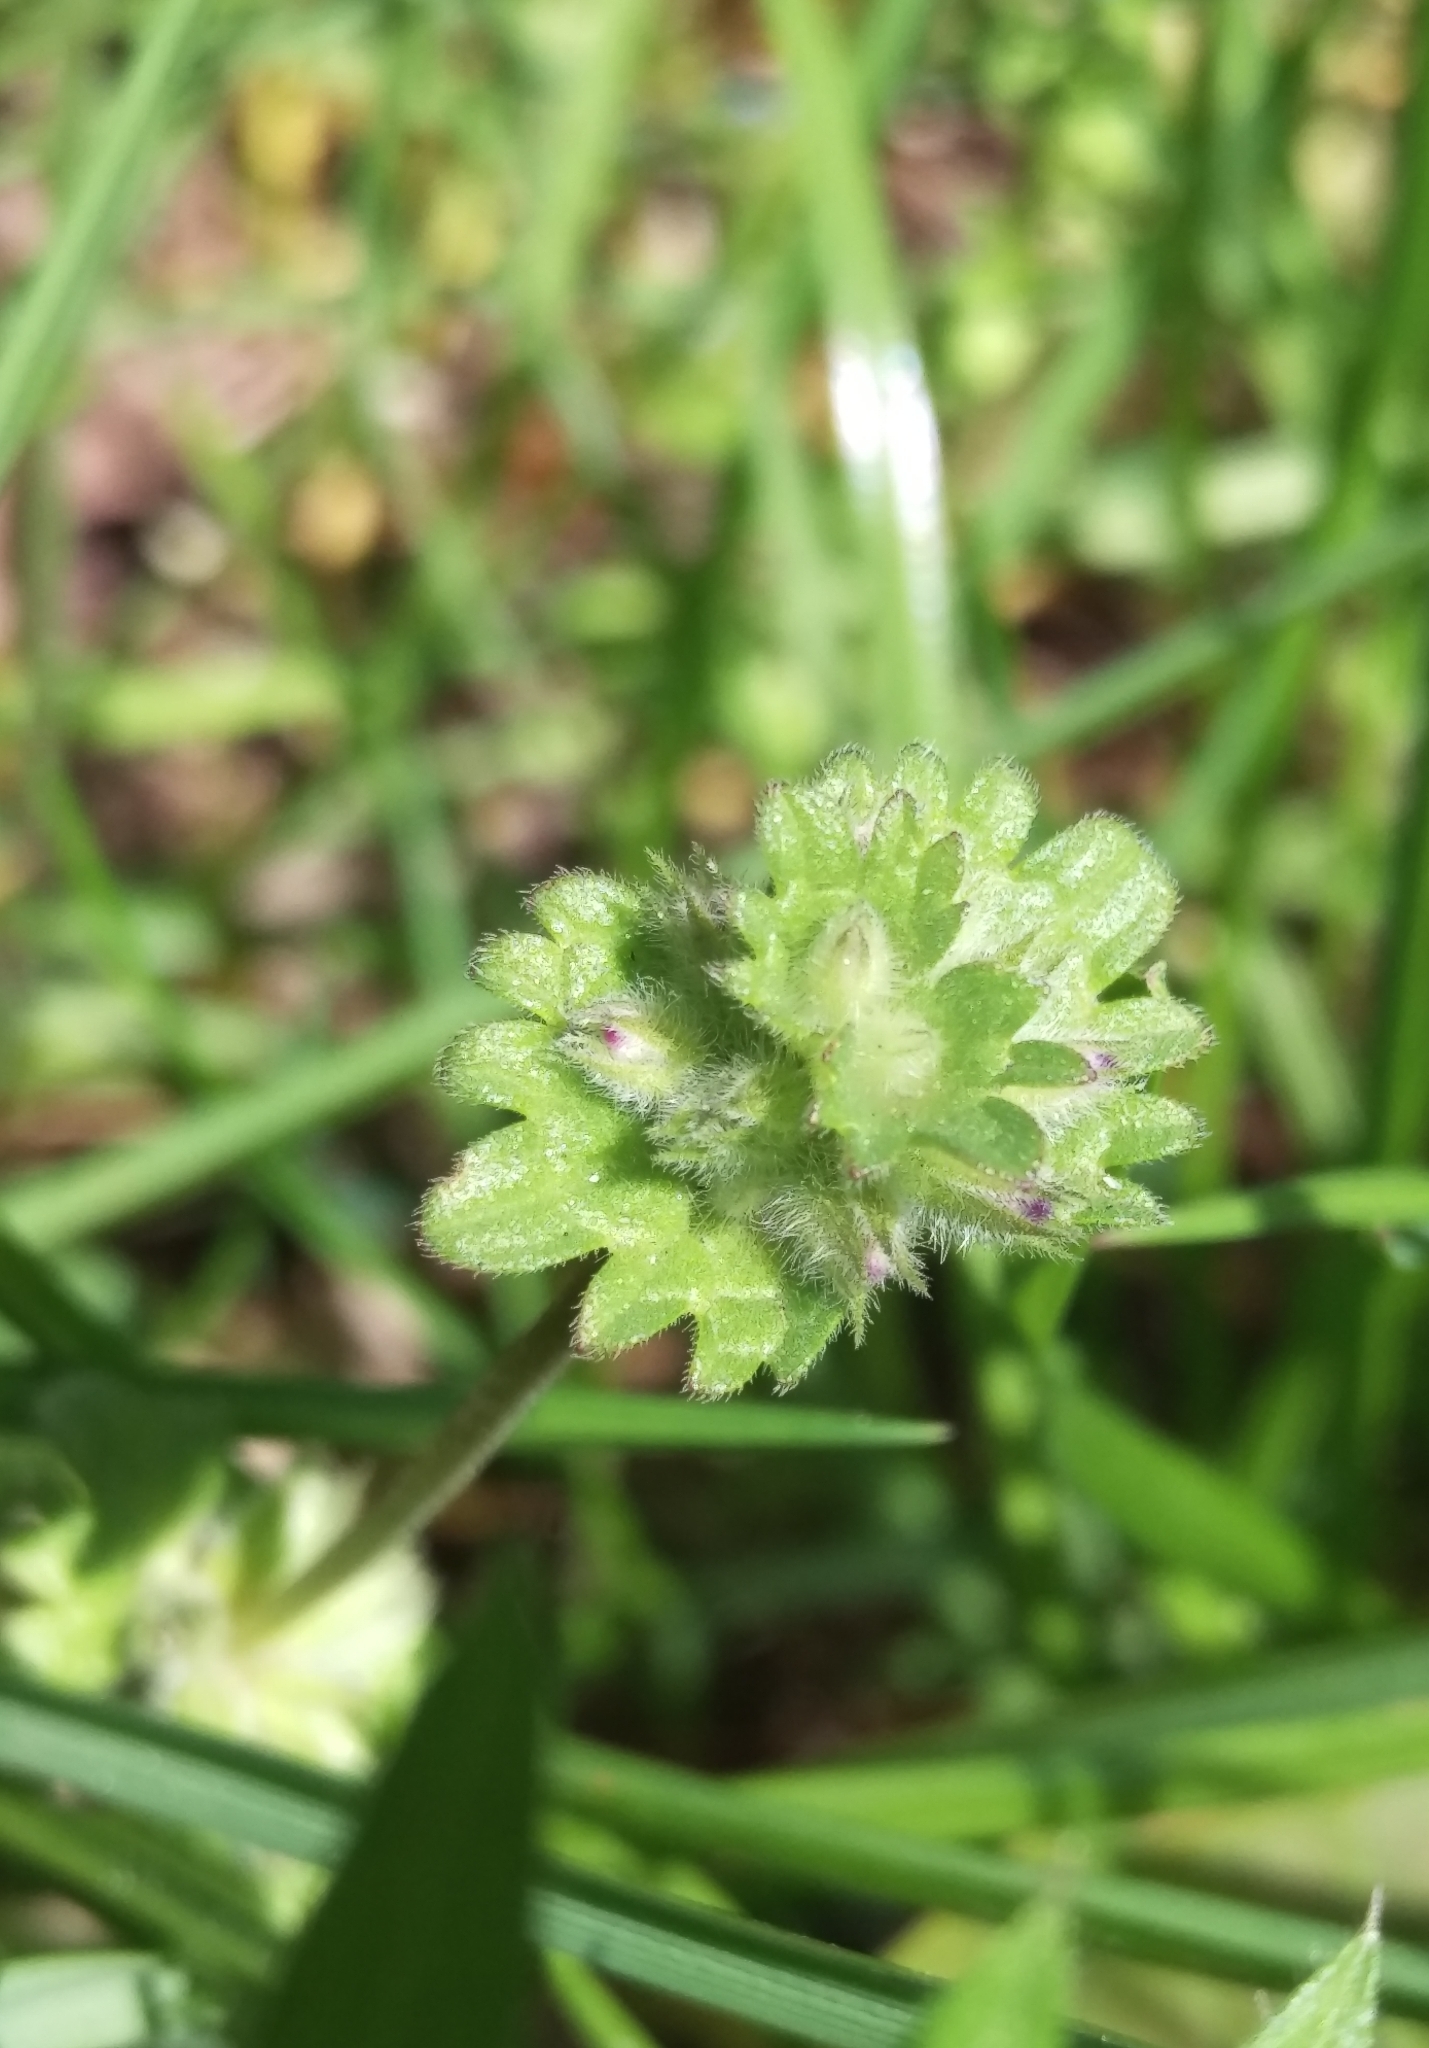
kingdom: Plantae
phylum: Tracheophyta
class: Magnoliopsida
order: Lamiales
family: Lamiaceae
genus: Lamium
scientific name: Lamium amplexicaule
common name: Henbit dead-nettle
